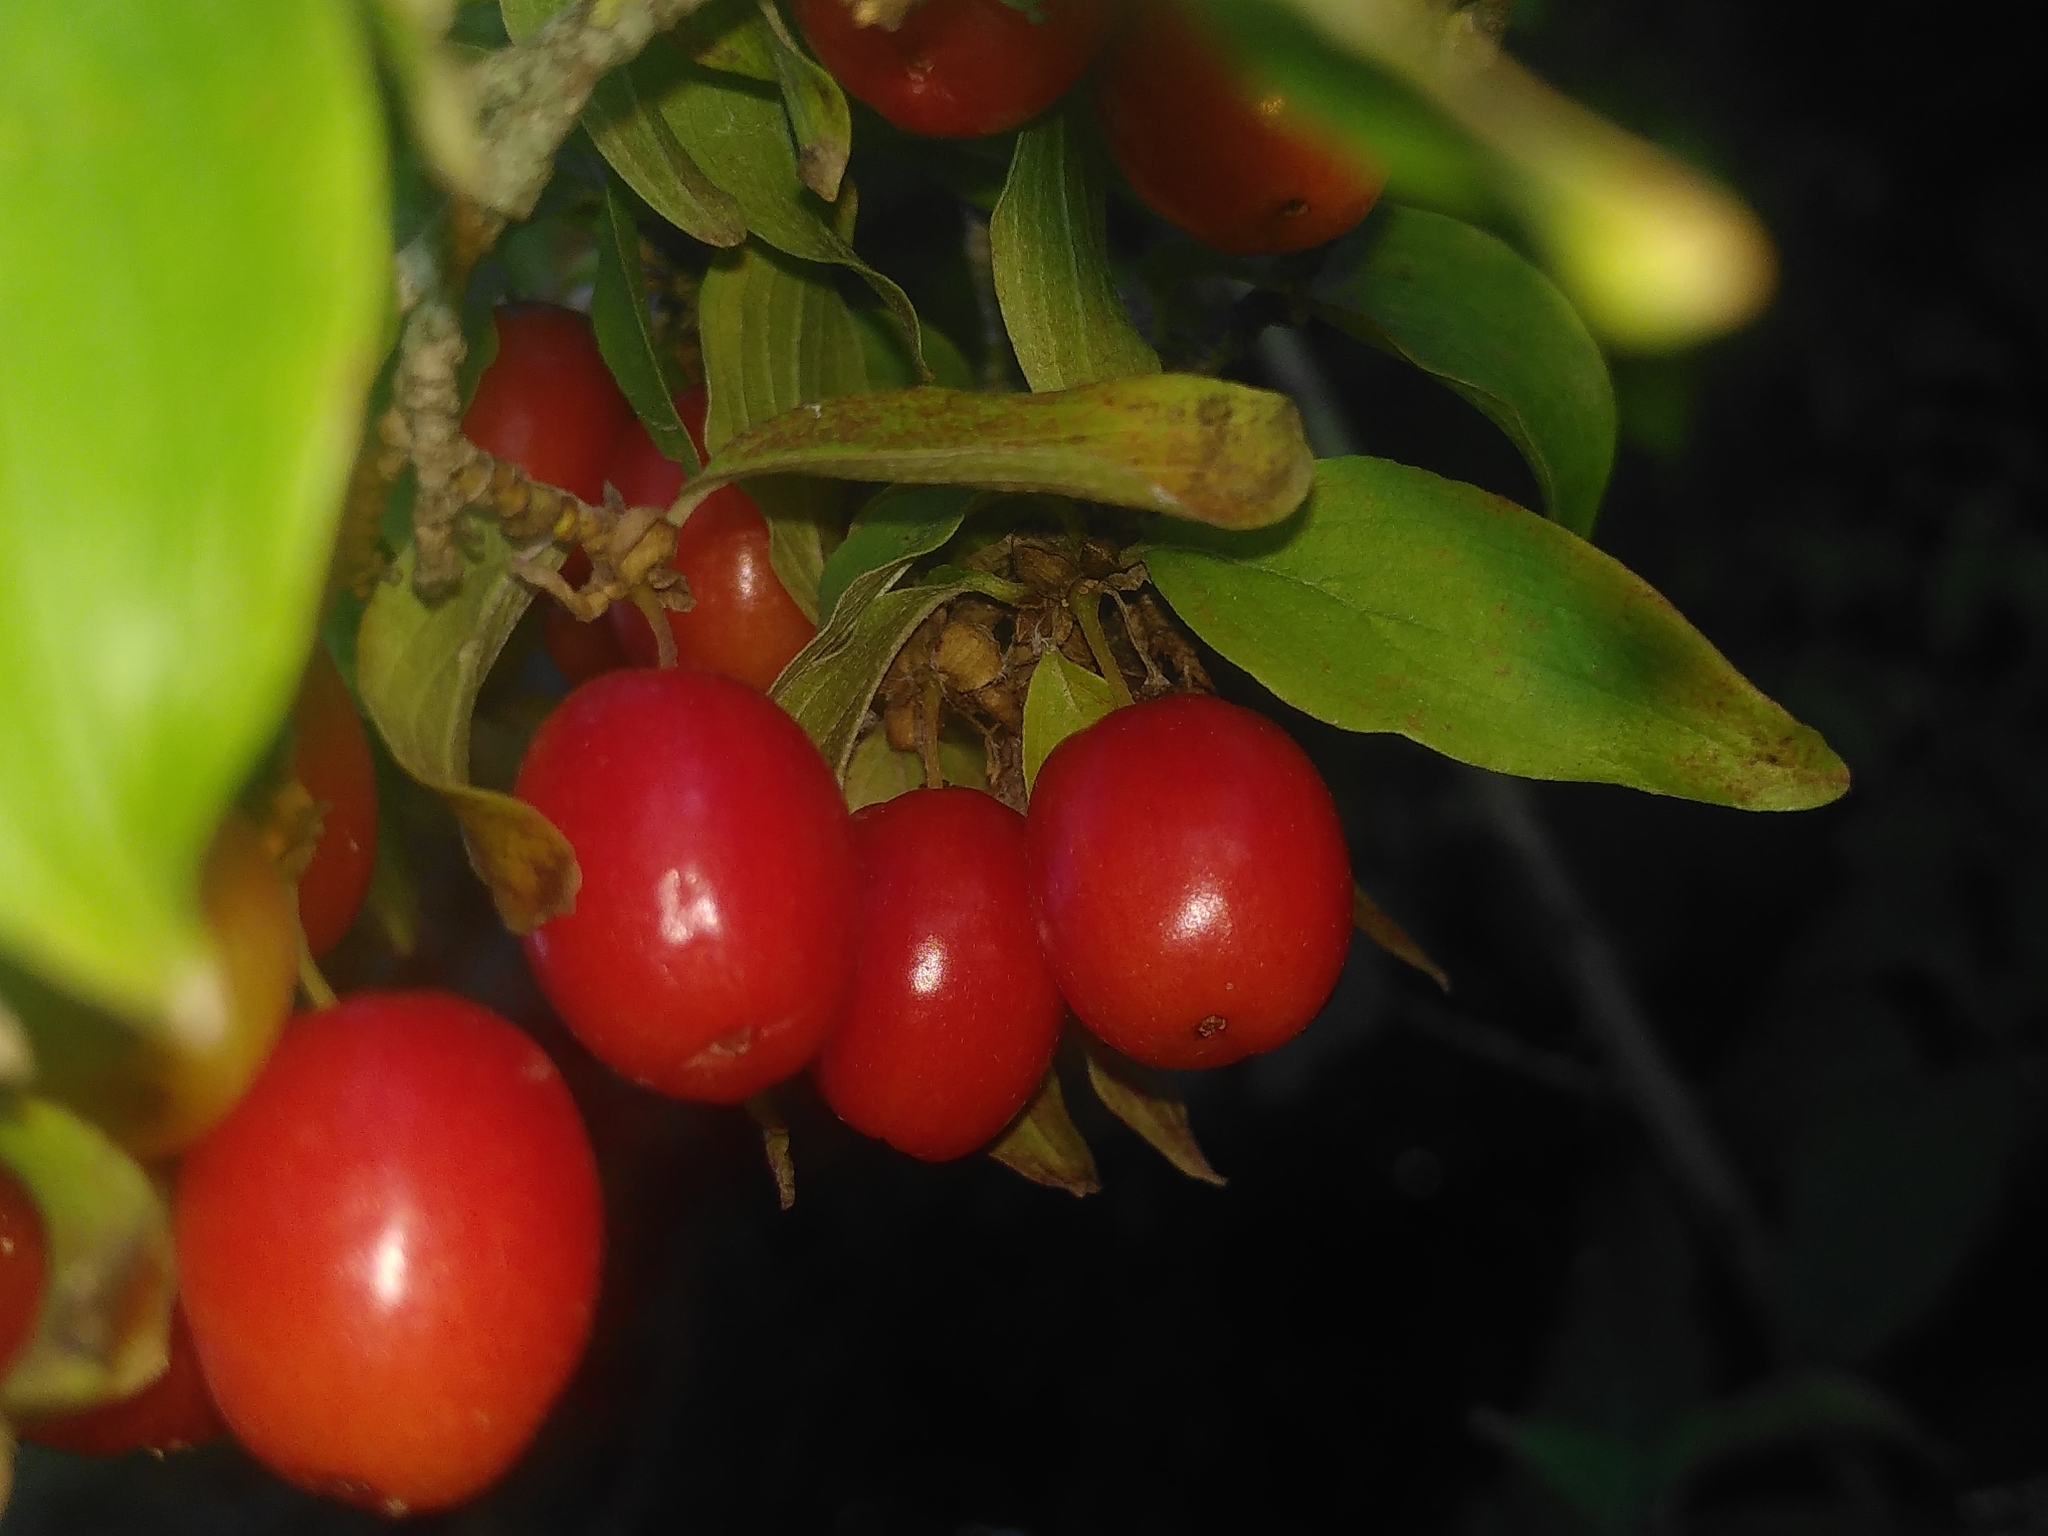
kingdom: Plantae
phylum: Tracheophyta
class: Magnoliopsida
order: Cornales
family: Cornaceae
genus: Cornus
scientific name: Cornus mas
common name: Cornelian-cherry
